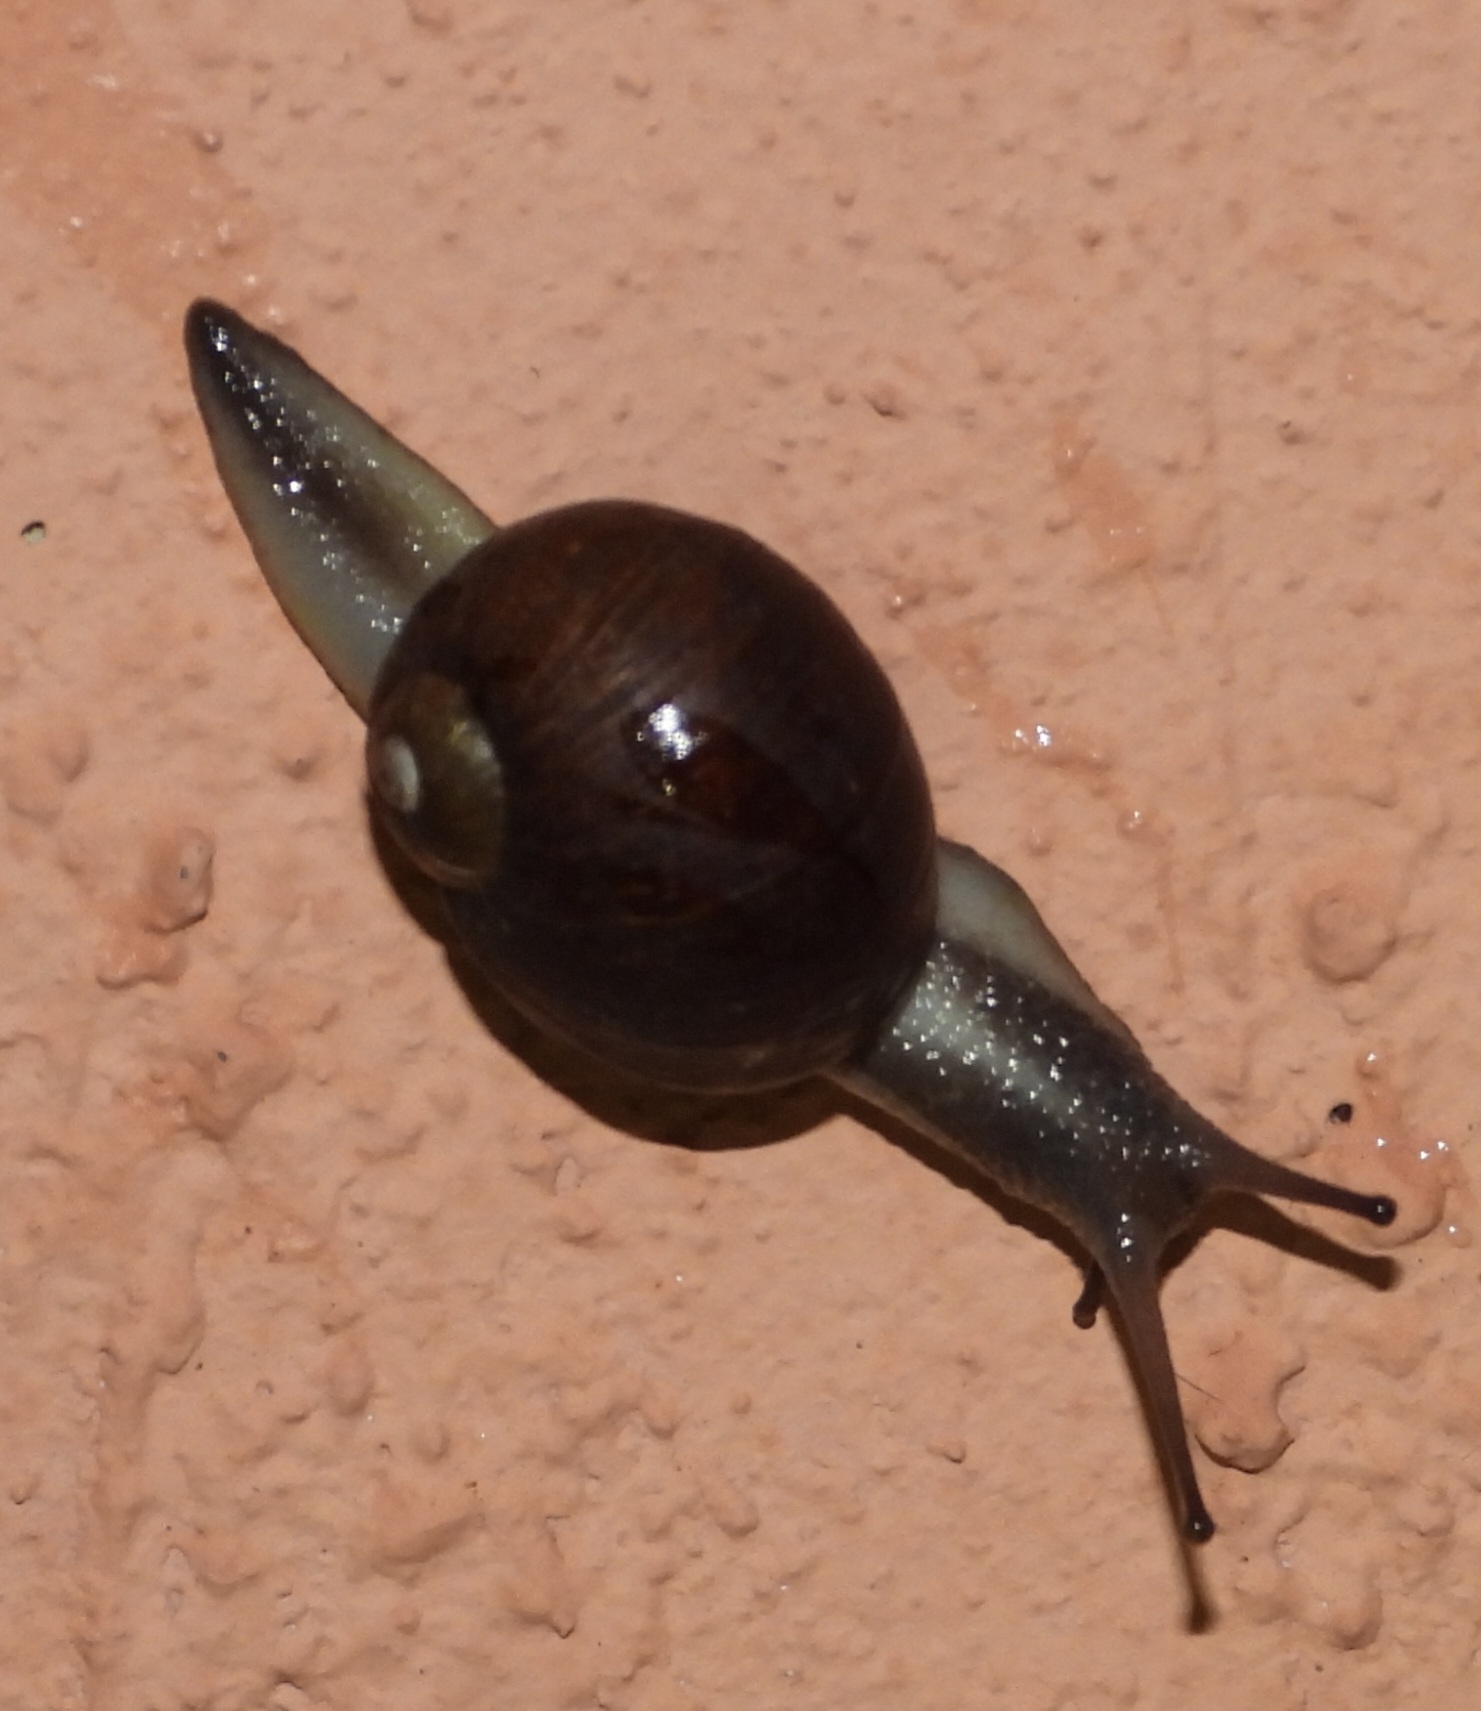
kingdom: Animalia
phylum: Mollusca
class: Gastropoda
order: Stylommatophora
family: Helicidae
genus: Cantareus
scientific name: Cantareus apertus
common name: Green gardensnail
